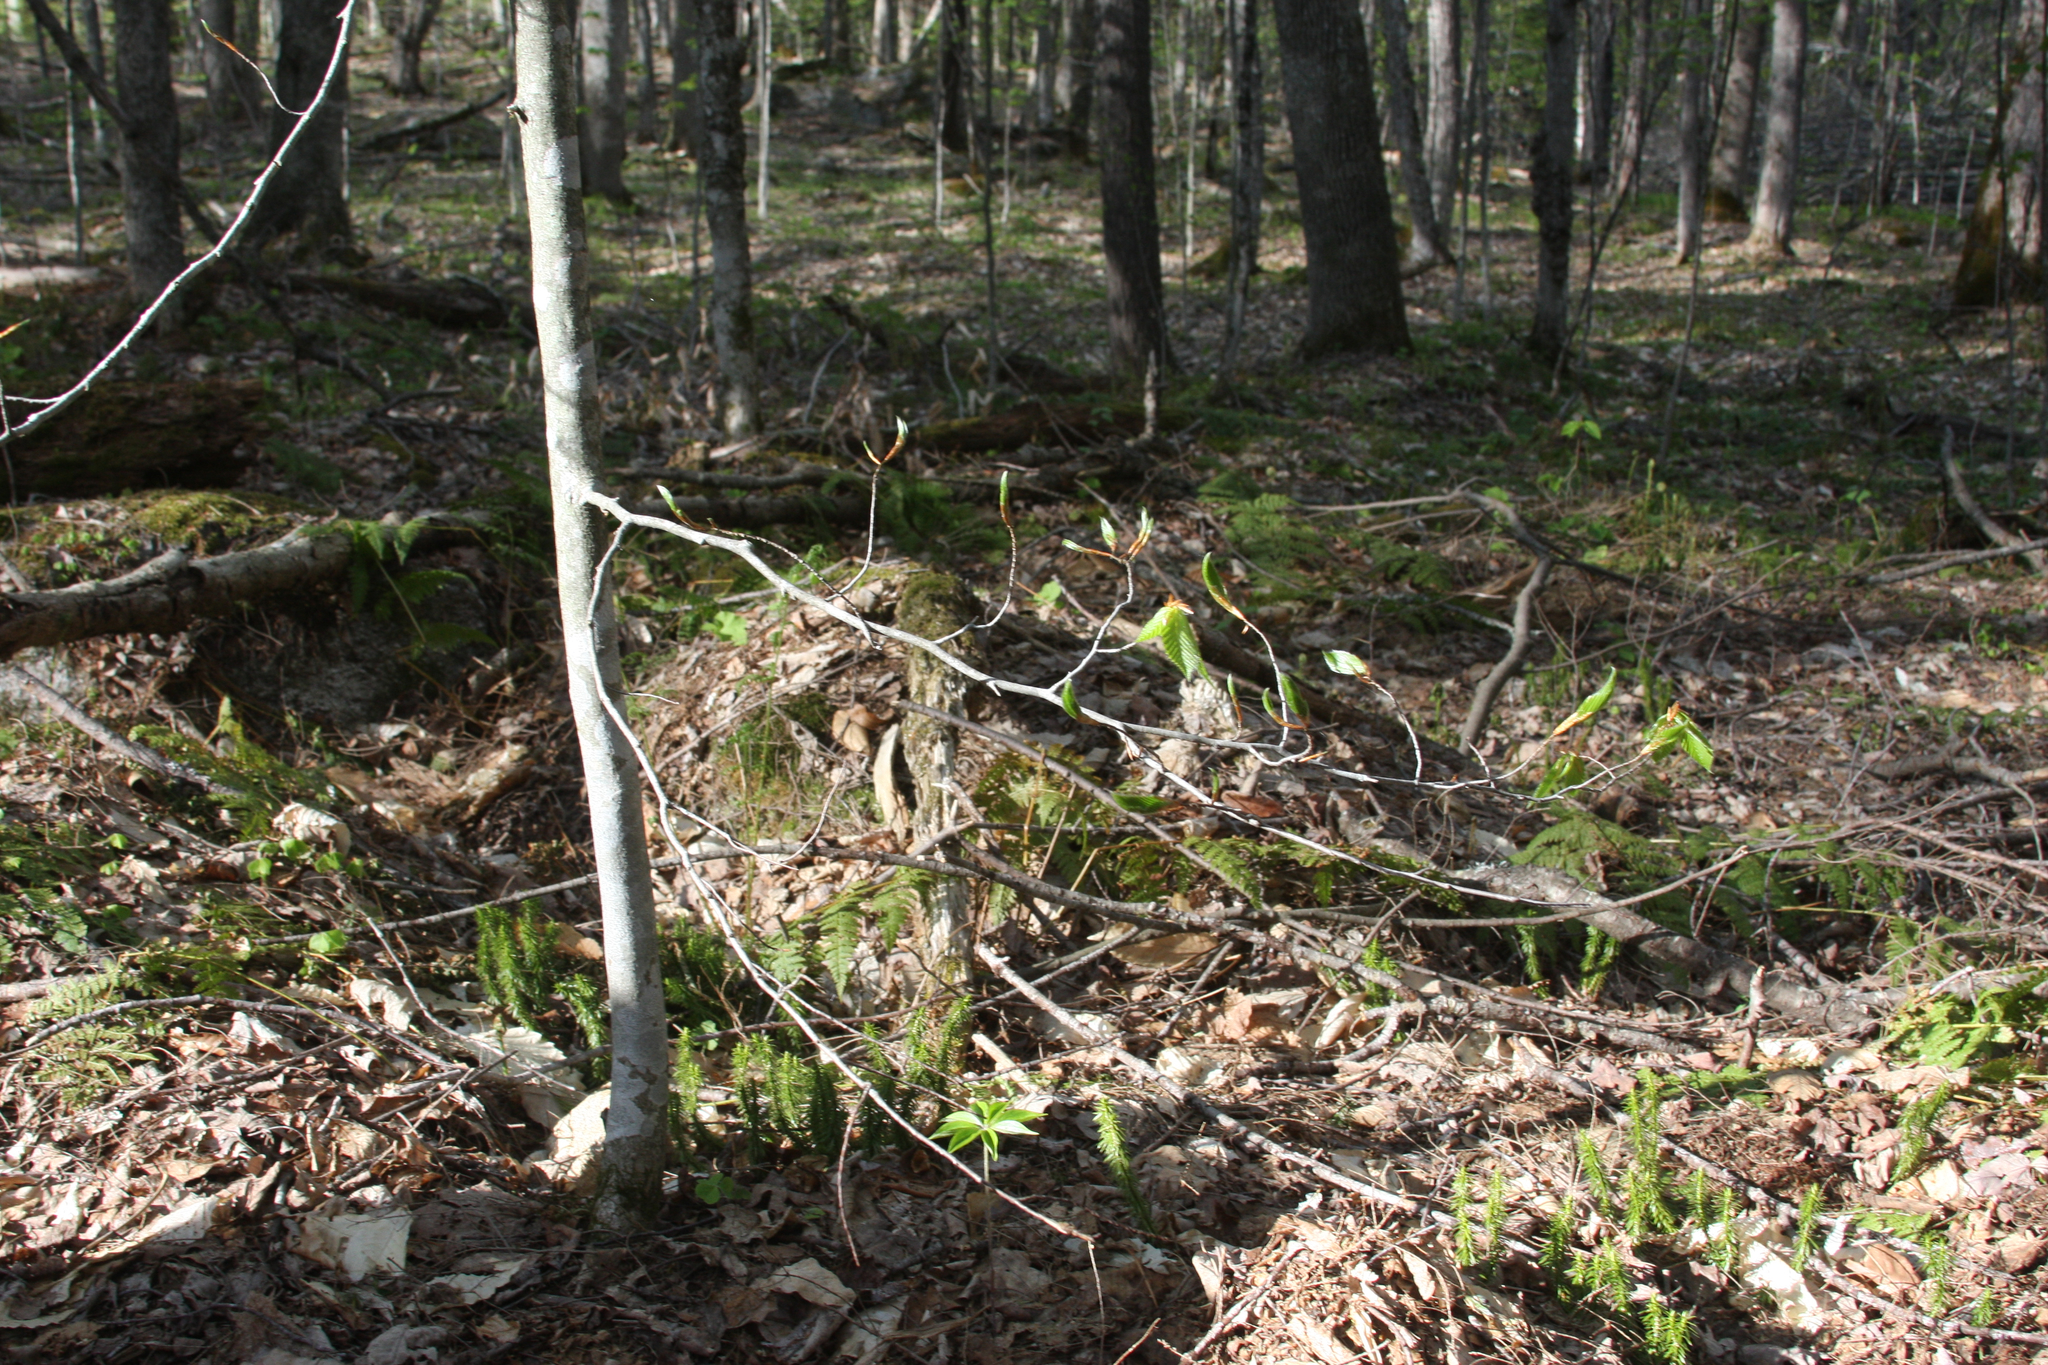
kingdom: Plantae
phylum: Tracheophyta
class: Magnoliopsida
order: Fagales
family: Fagaceae
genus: Fagus
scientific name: Fagus grandifolia
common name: American beech
